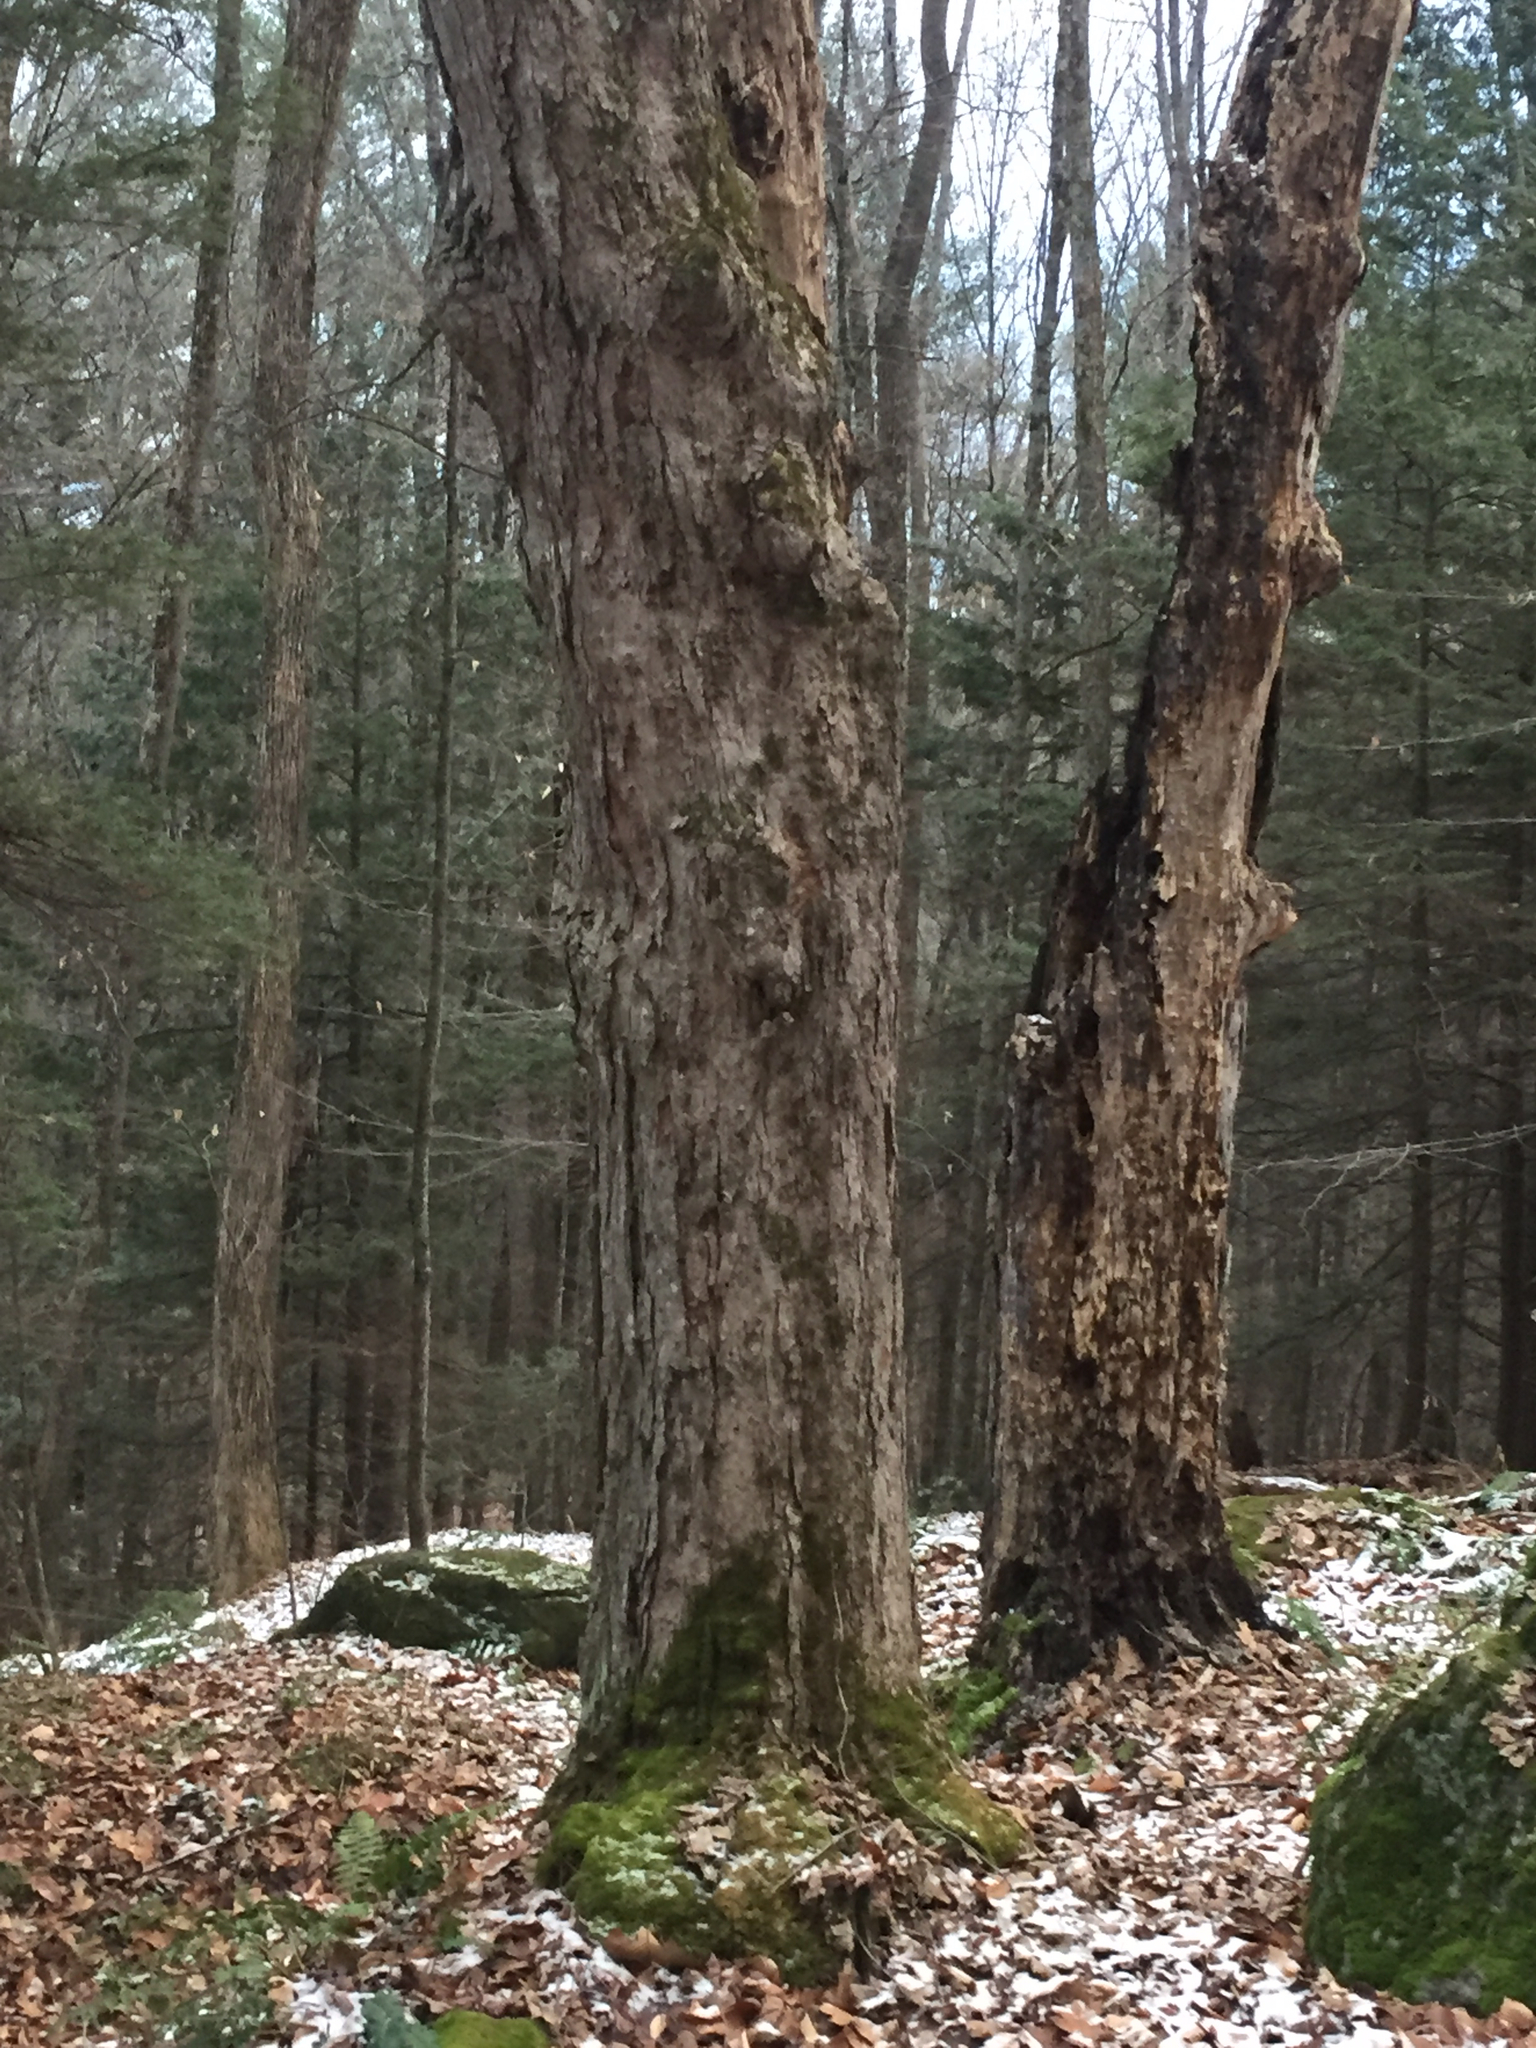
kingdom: Plantae
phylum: Tracheophyta
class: Magnoliopsida
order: Sapindales
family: Sapindaceae
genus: Acer
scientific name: Acer saccharum
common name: Sugar maple
